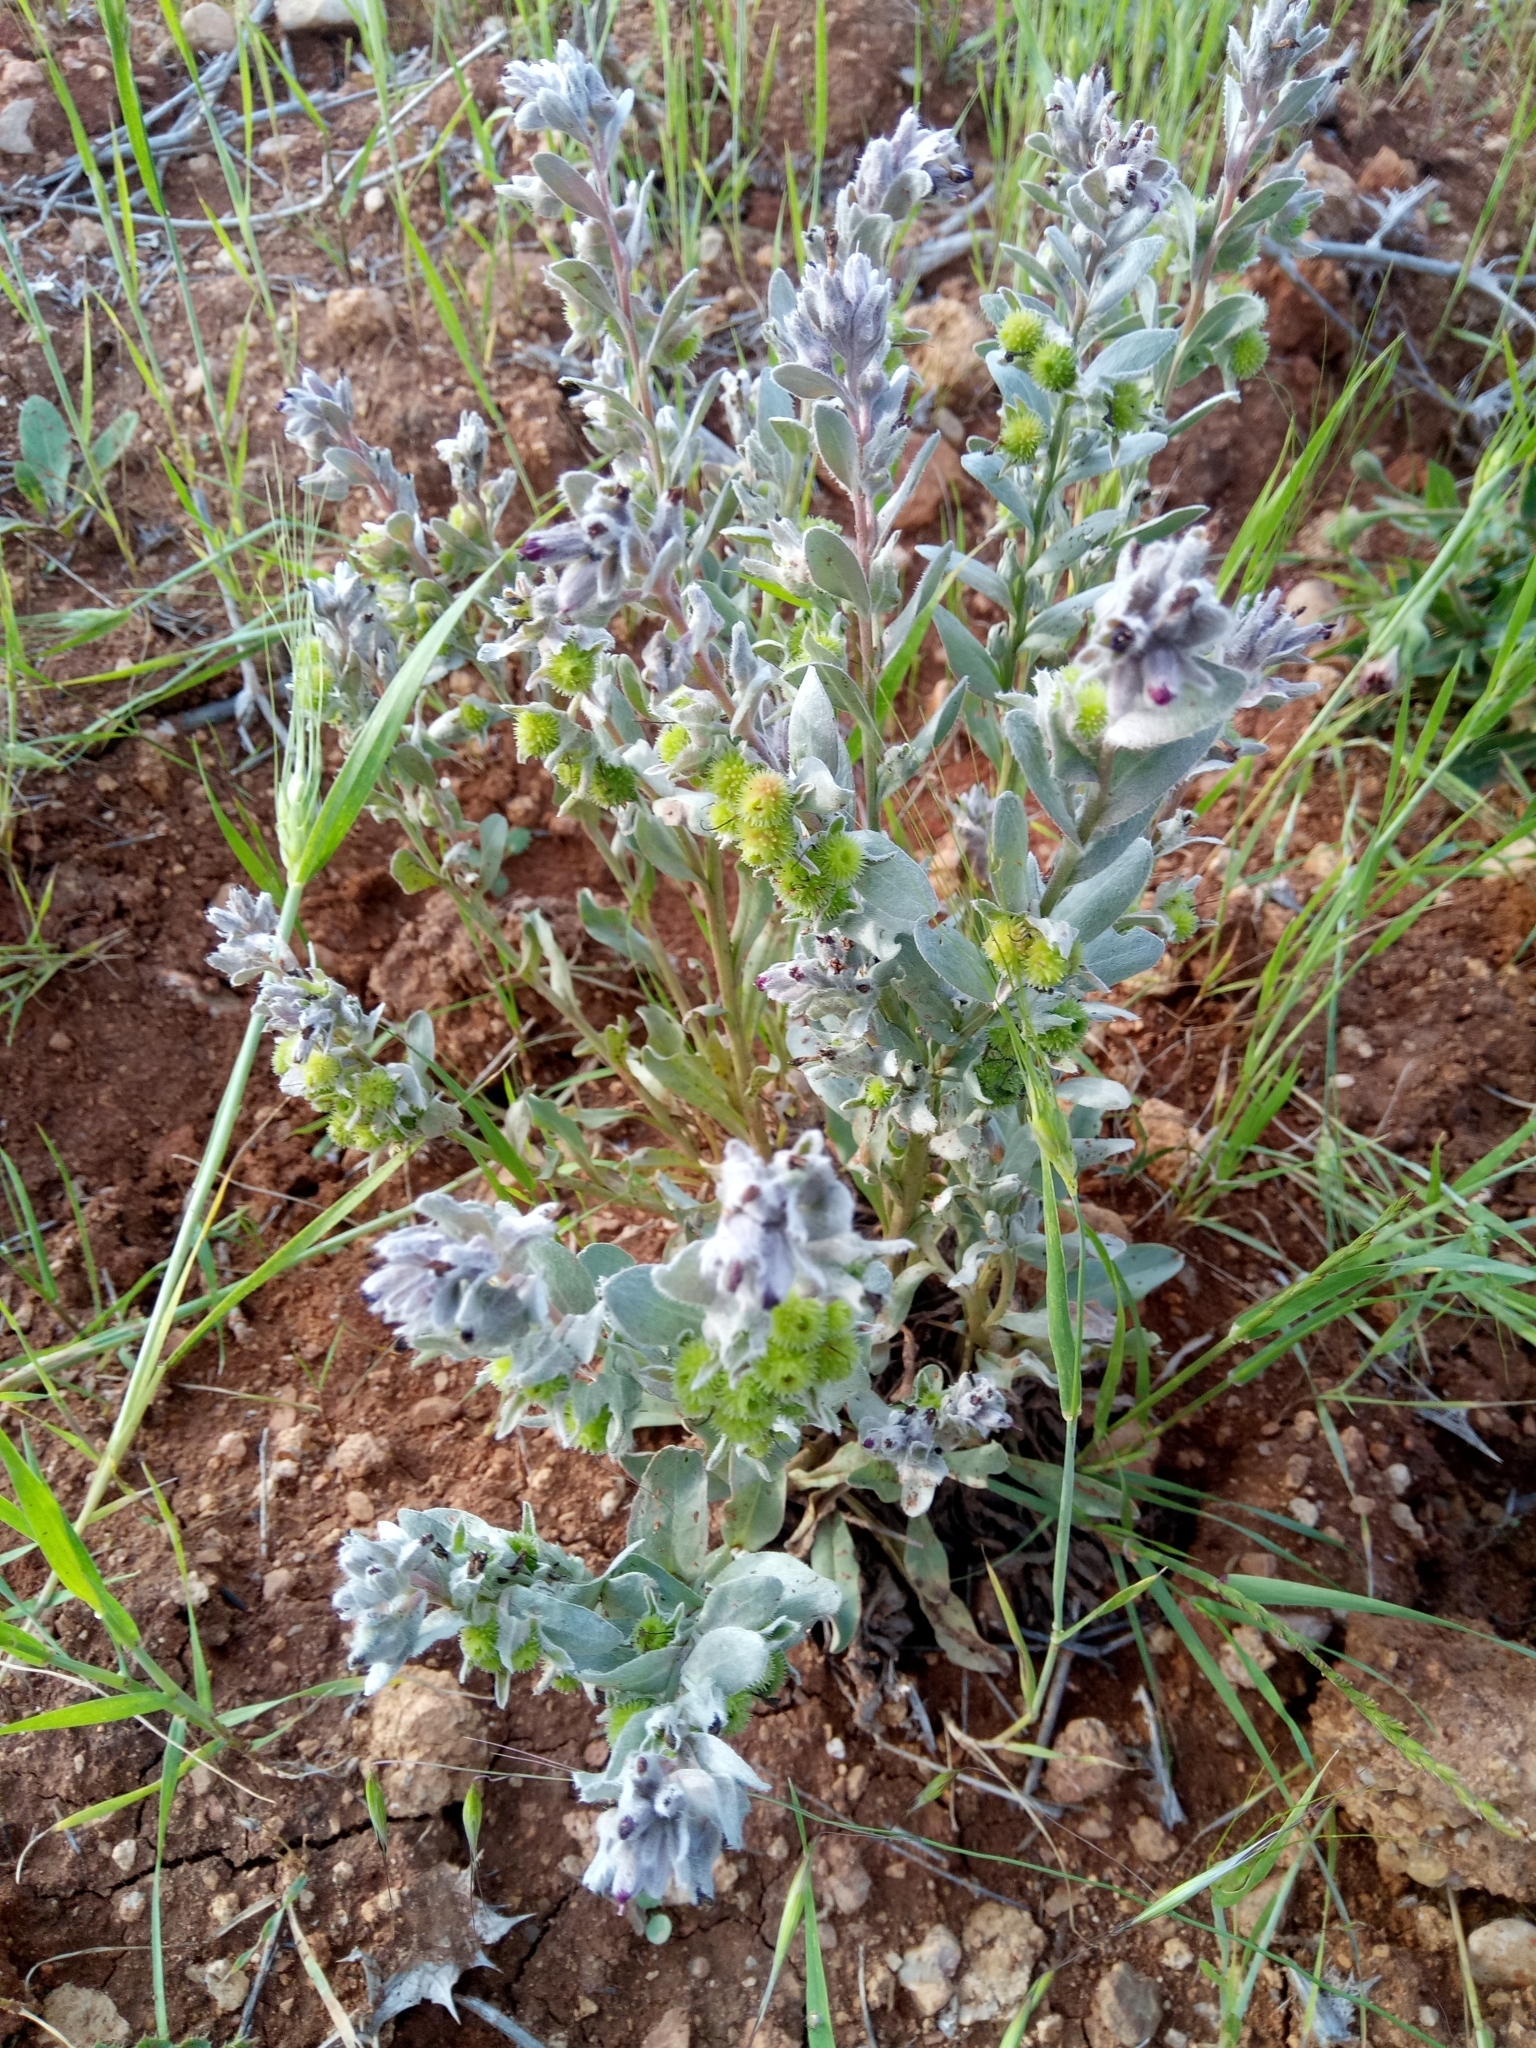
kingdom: Plantae
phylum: Tracheophyta
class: Magnoliopsida
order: Boraginales
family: Boraginaceae
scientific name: Boraginaceae
